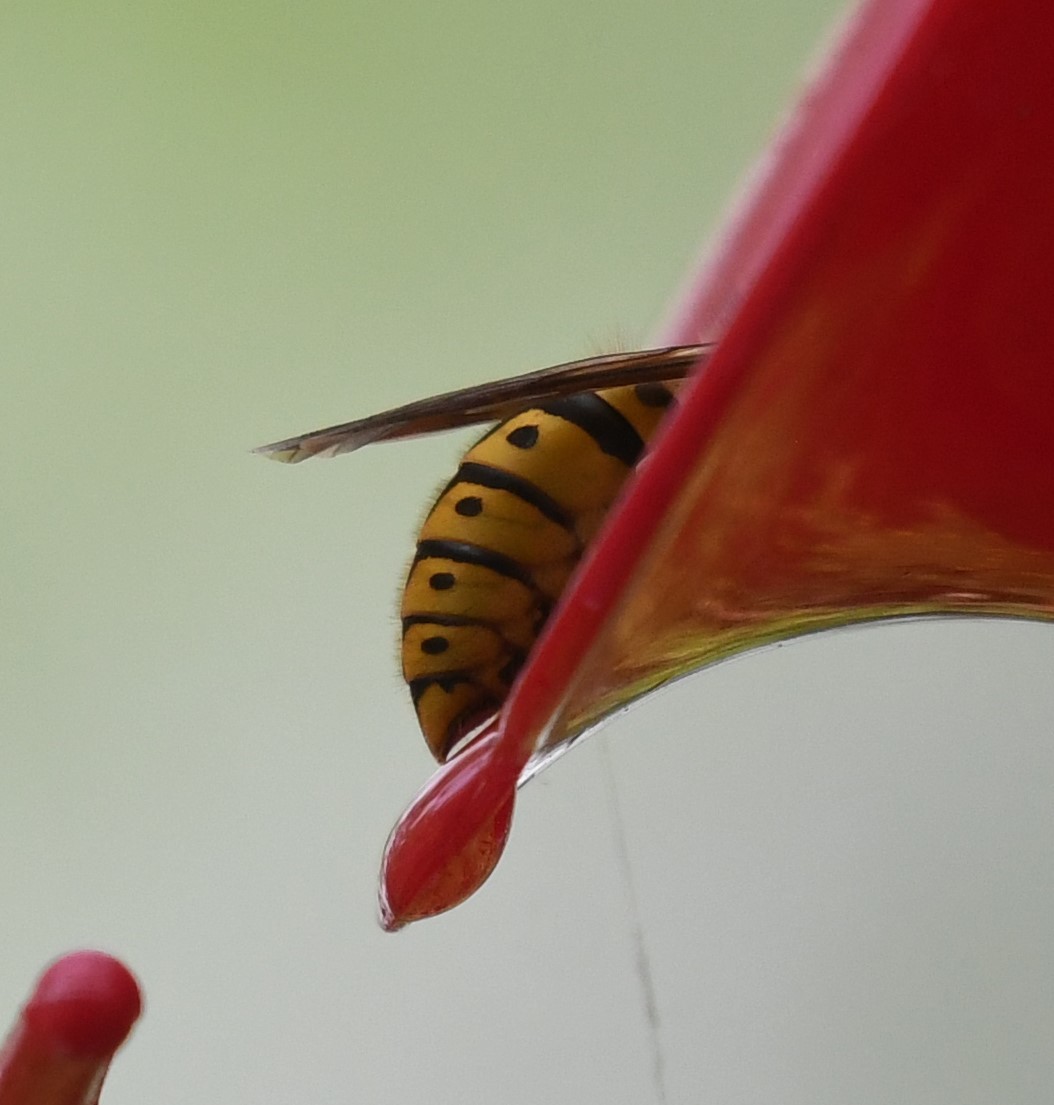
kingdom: Animalia
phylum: Arthropoda
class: Insecta
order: Hymenoptera
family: Vespidae
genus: Vespula
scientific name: Vespula germanica
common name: German wasp
